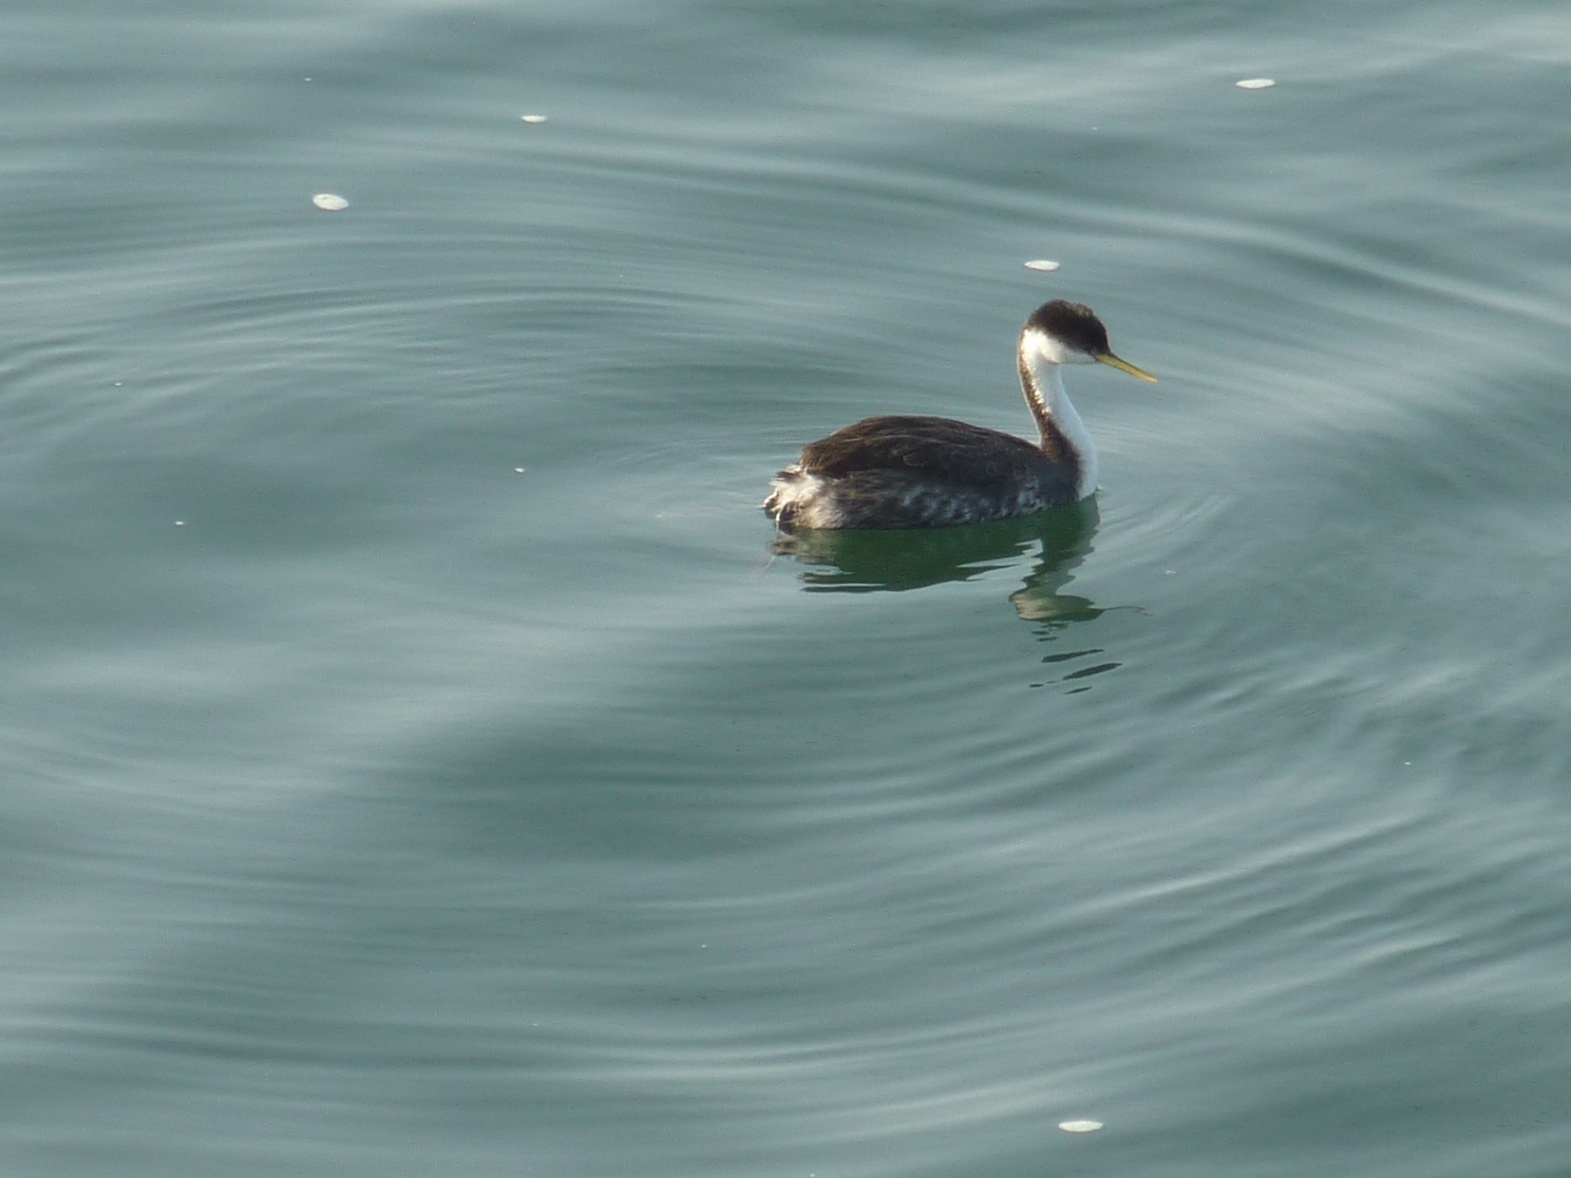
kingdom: Animalia
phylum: Chordata
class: Aves
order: Podicipediformes
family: Podicipedidae
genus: Aechmophorus
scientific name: Aechmophorus occidentalis
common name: Western grebe
